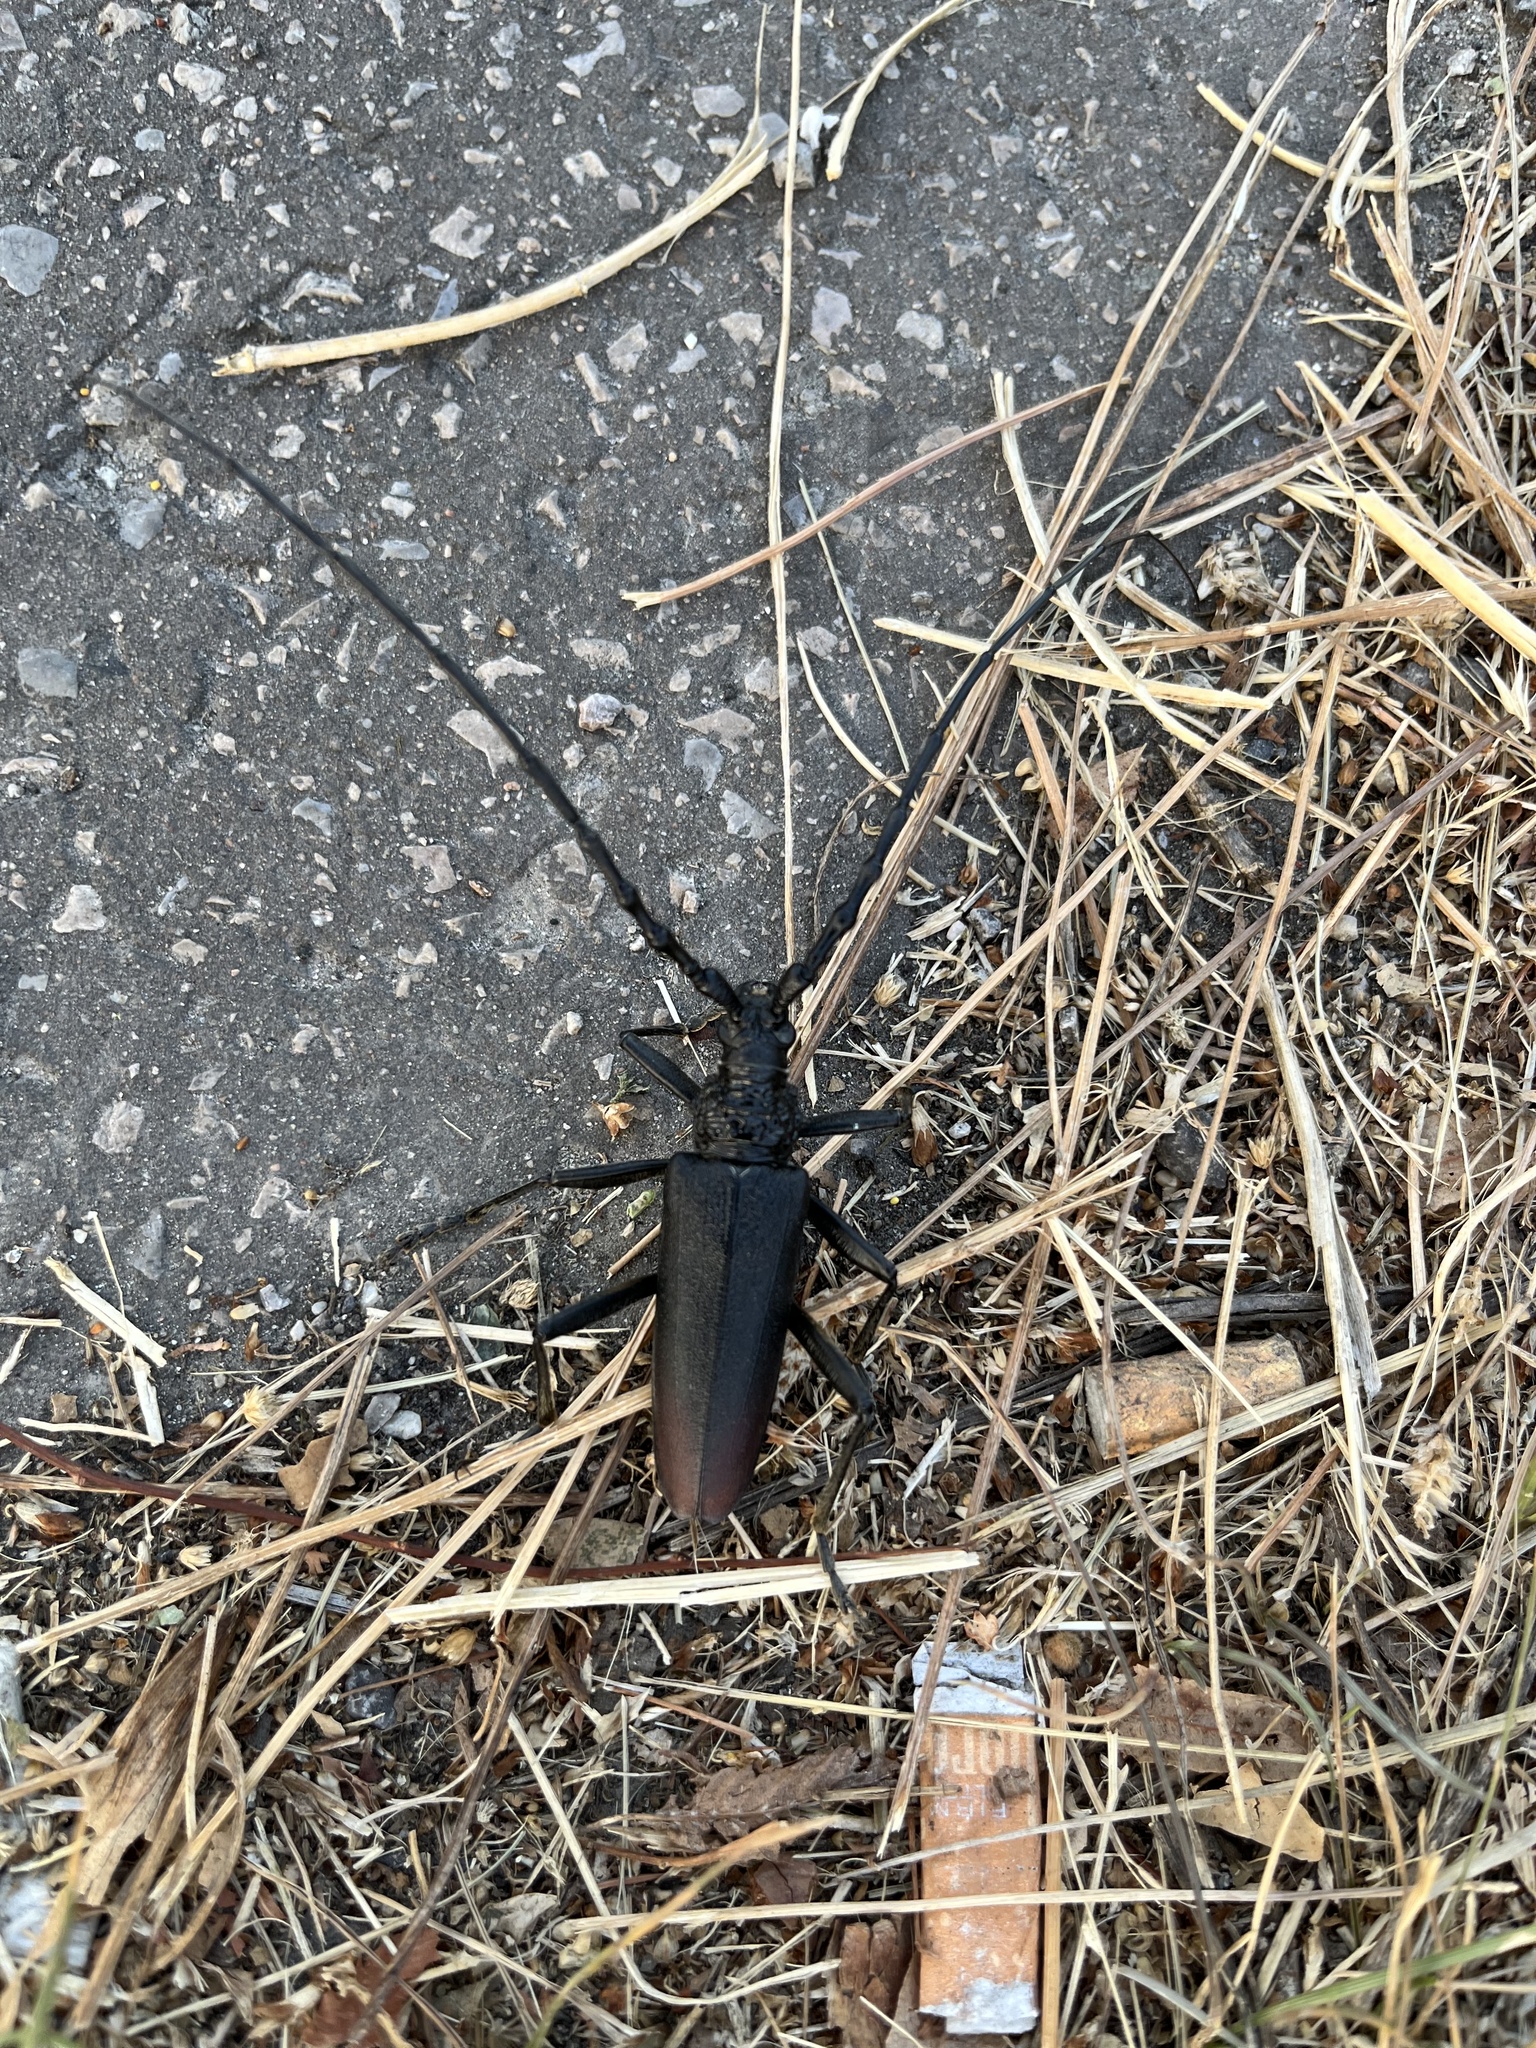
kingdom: Animalia
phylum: Arthropoda
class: Insecta
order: Coleoptera
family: Cerambycidae
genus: Cerambyx
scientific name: Cerambyx cerdo
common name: Cerambyx longicorn
